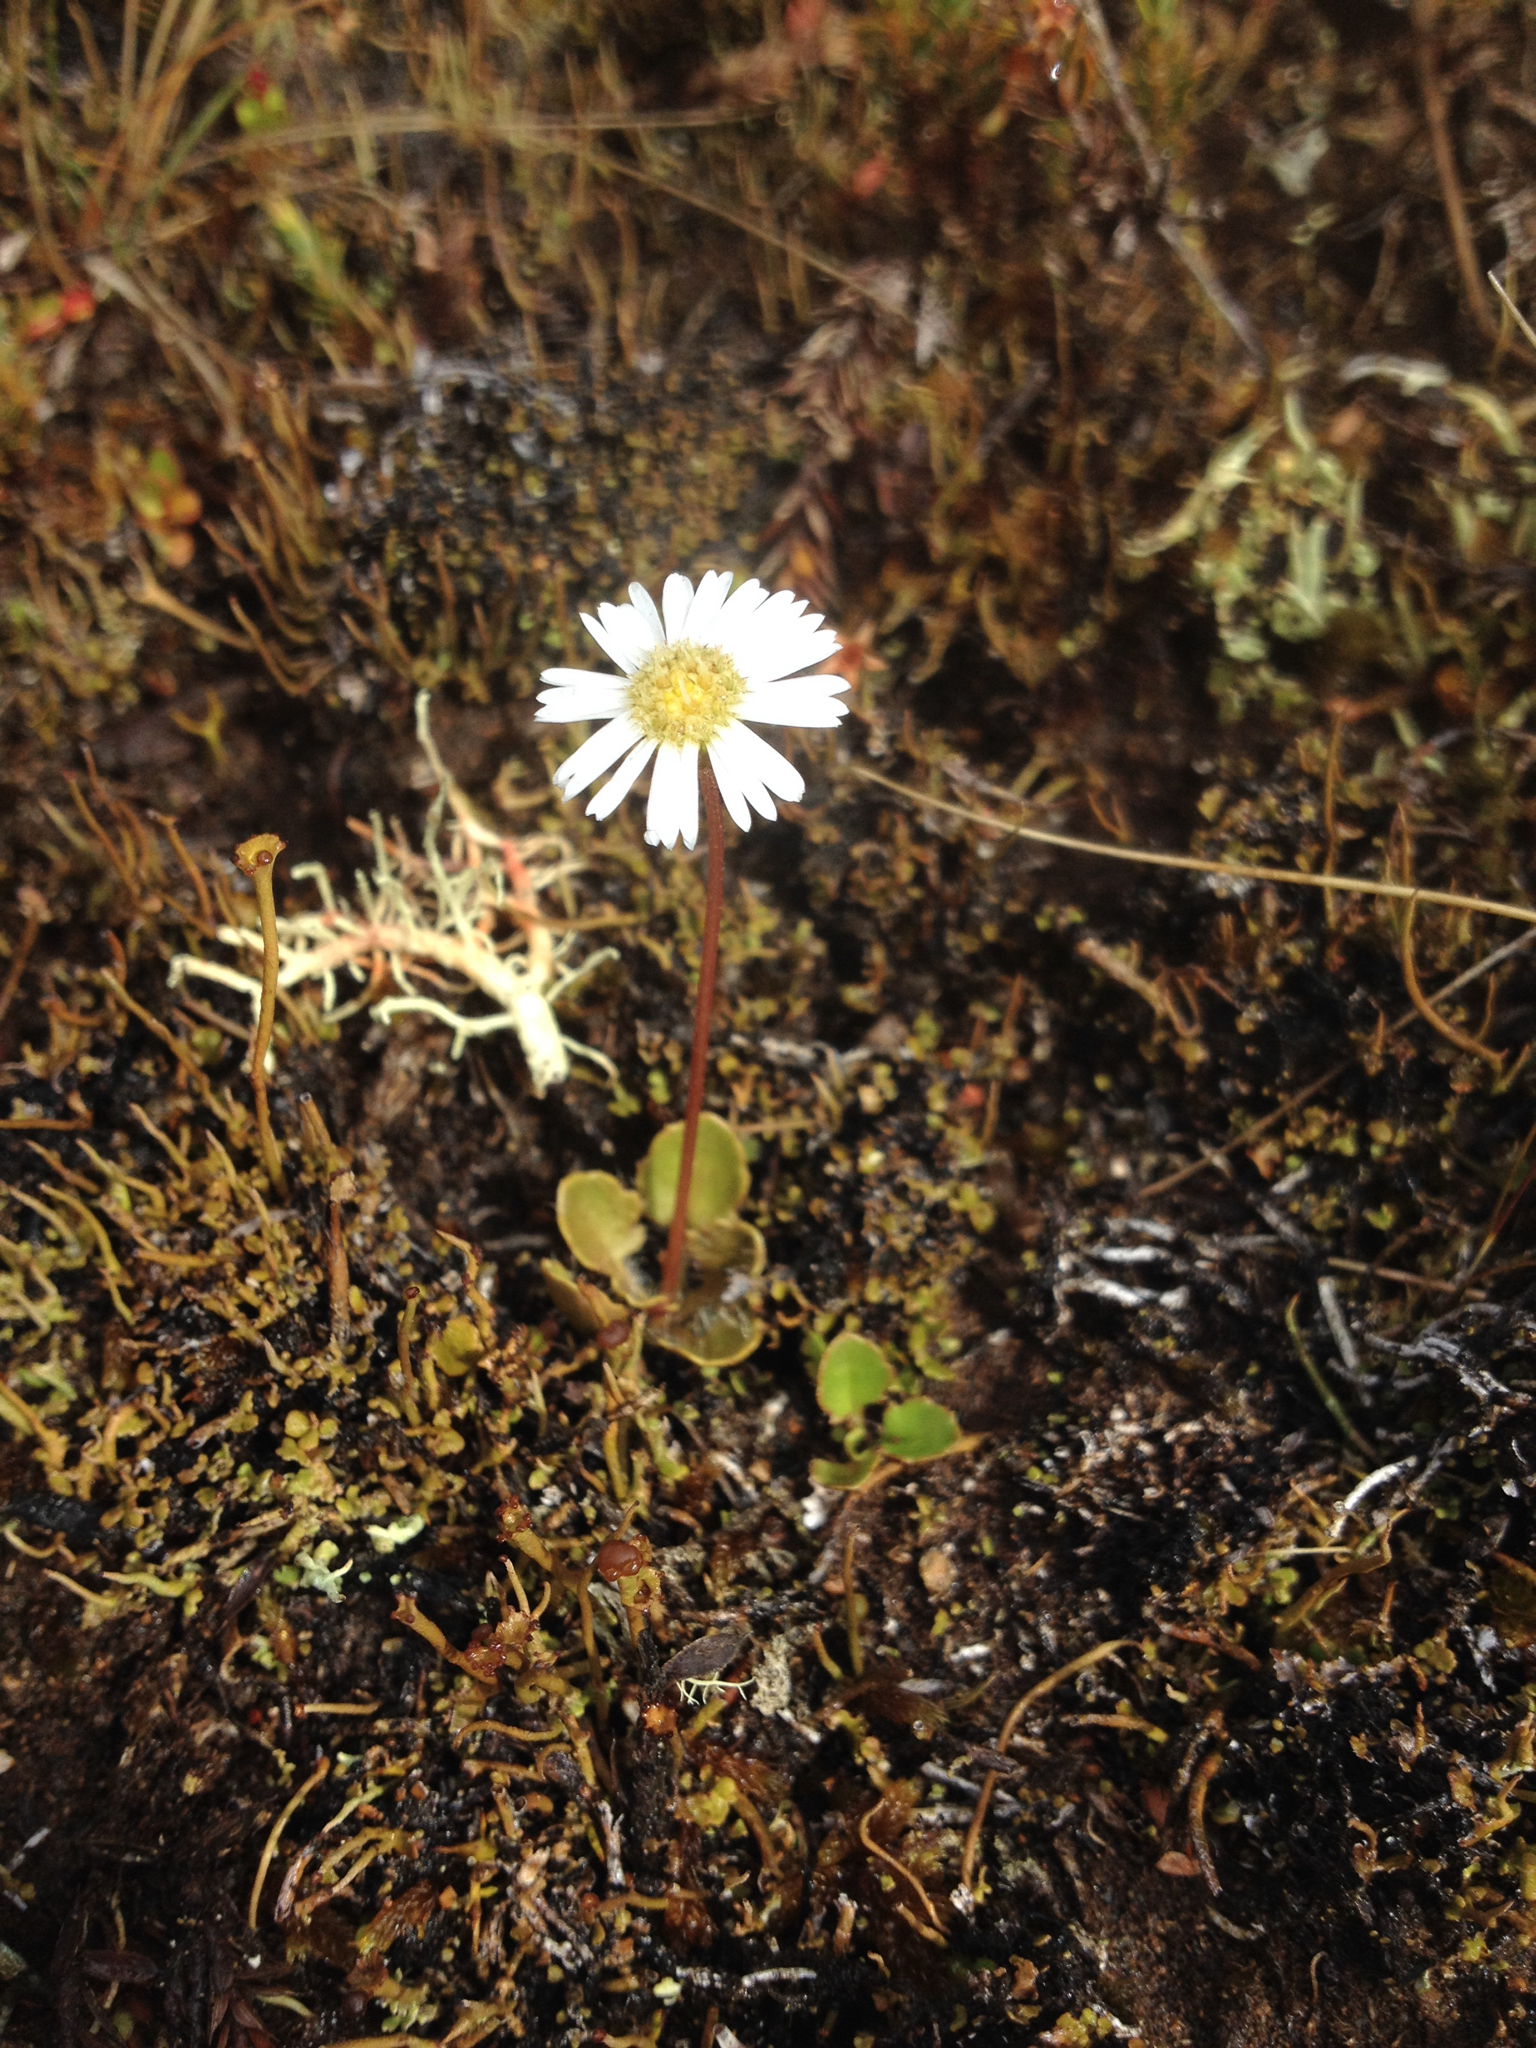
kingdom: Plantae
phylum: Tracheophyta
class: Magnoliopsida
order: Asterales
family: Asteraceae
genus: Lagenophora
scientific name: Lagenophora pumila
